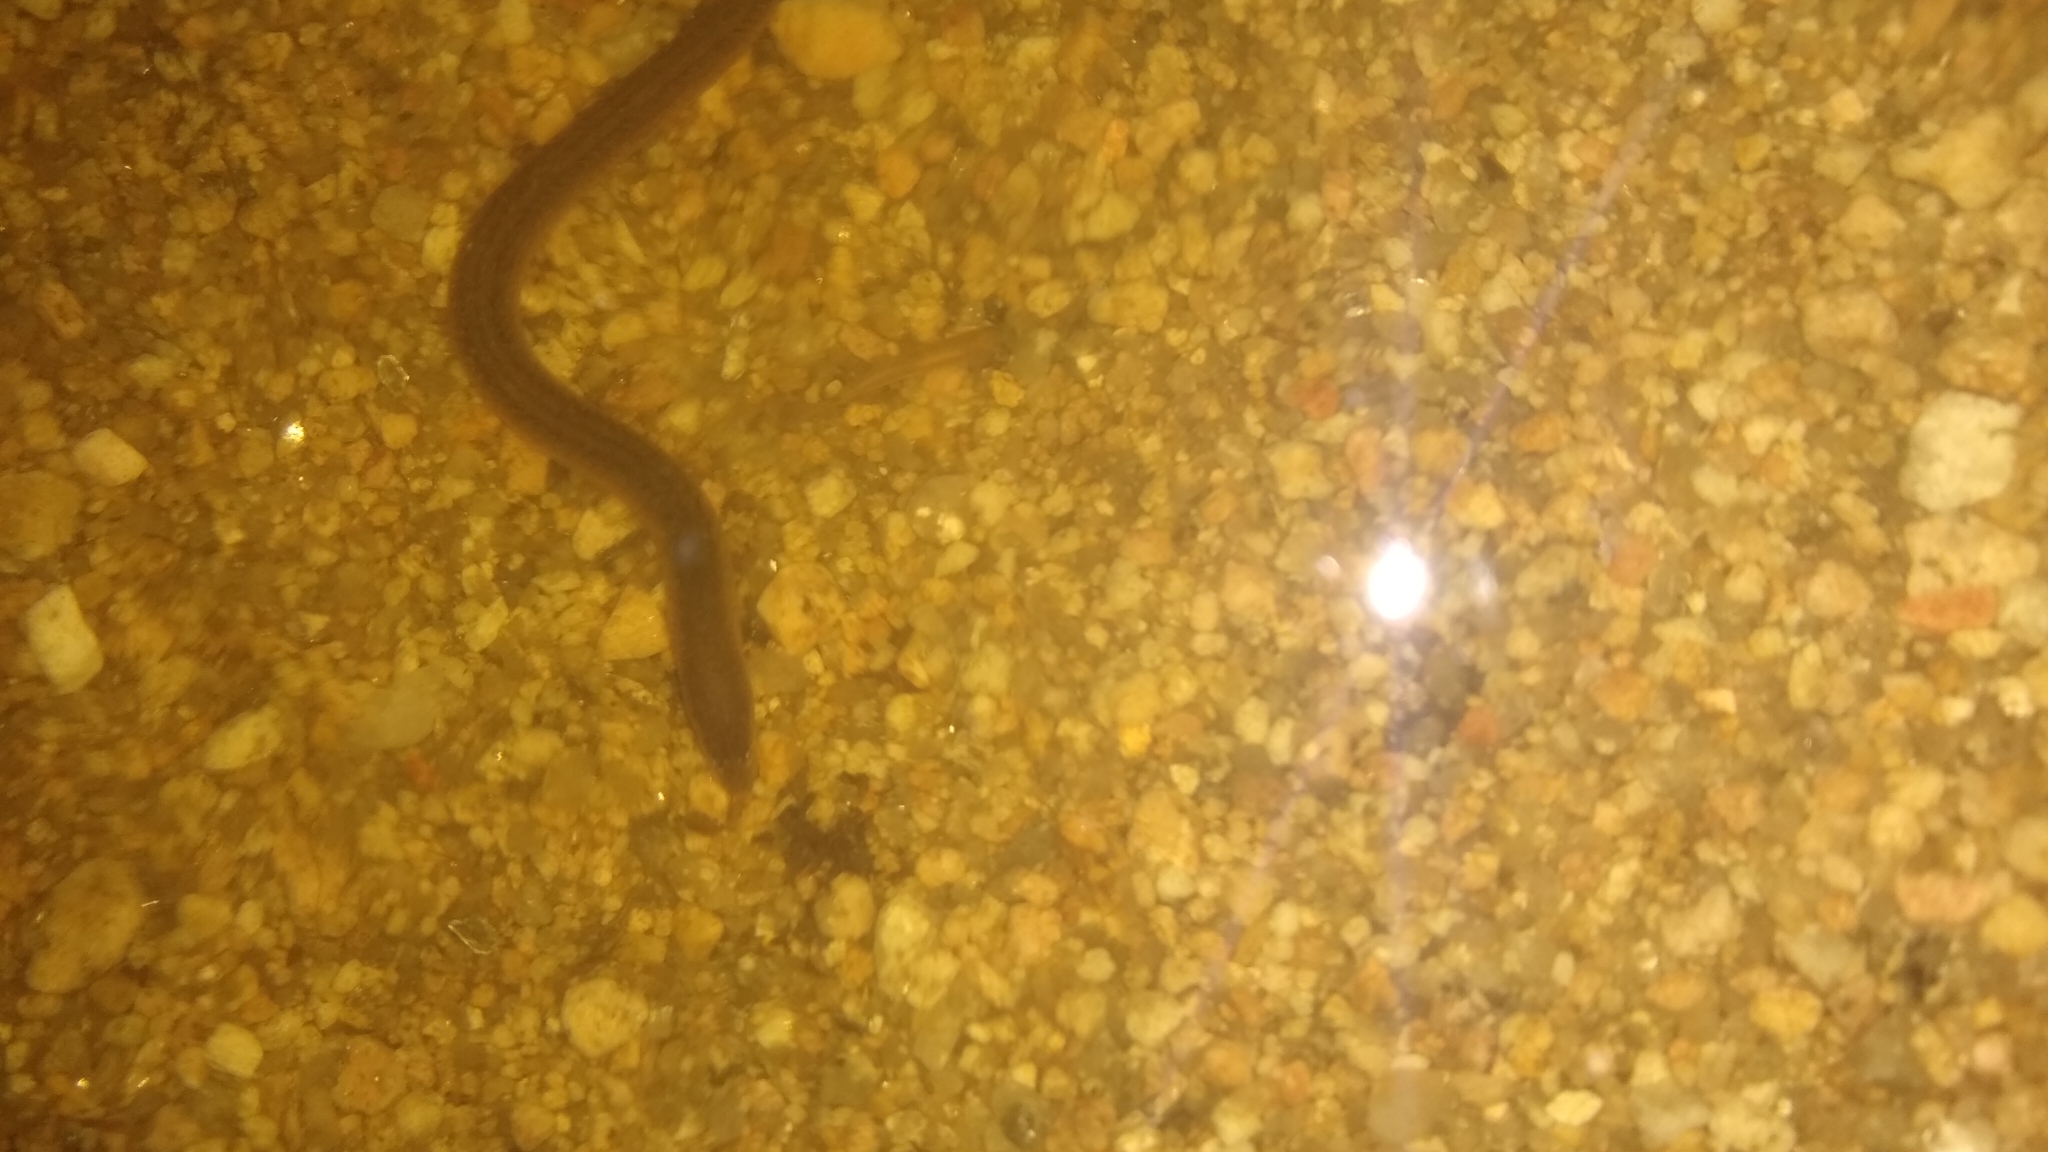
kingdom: Animalia
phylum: Chordata
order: Synbranchiformes
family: Synbranchidae
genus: Synbranchus
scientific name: Synbranchus marmoratus
